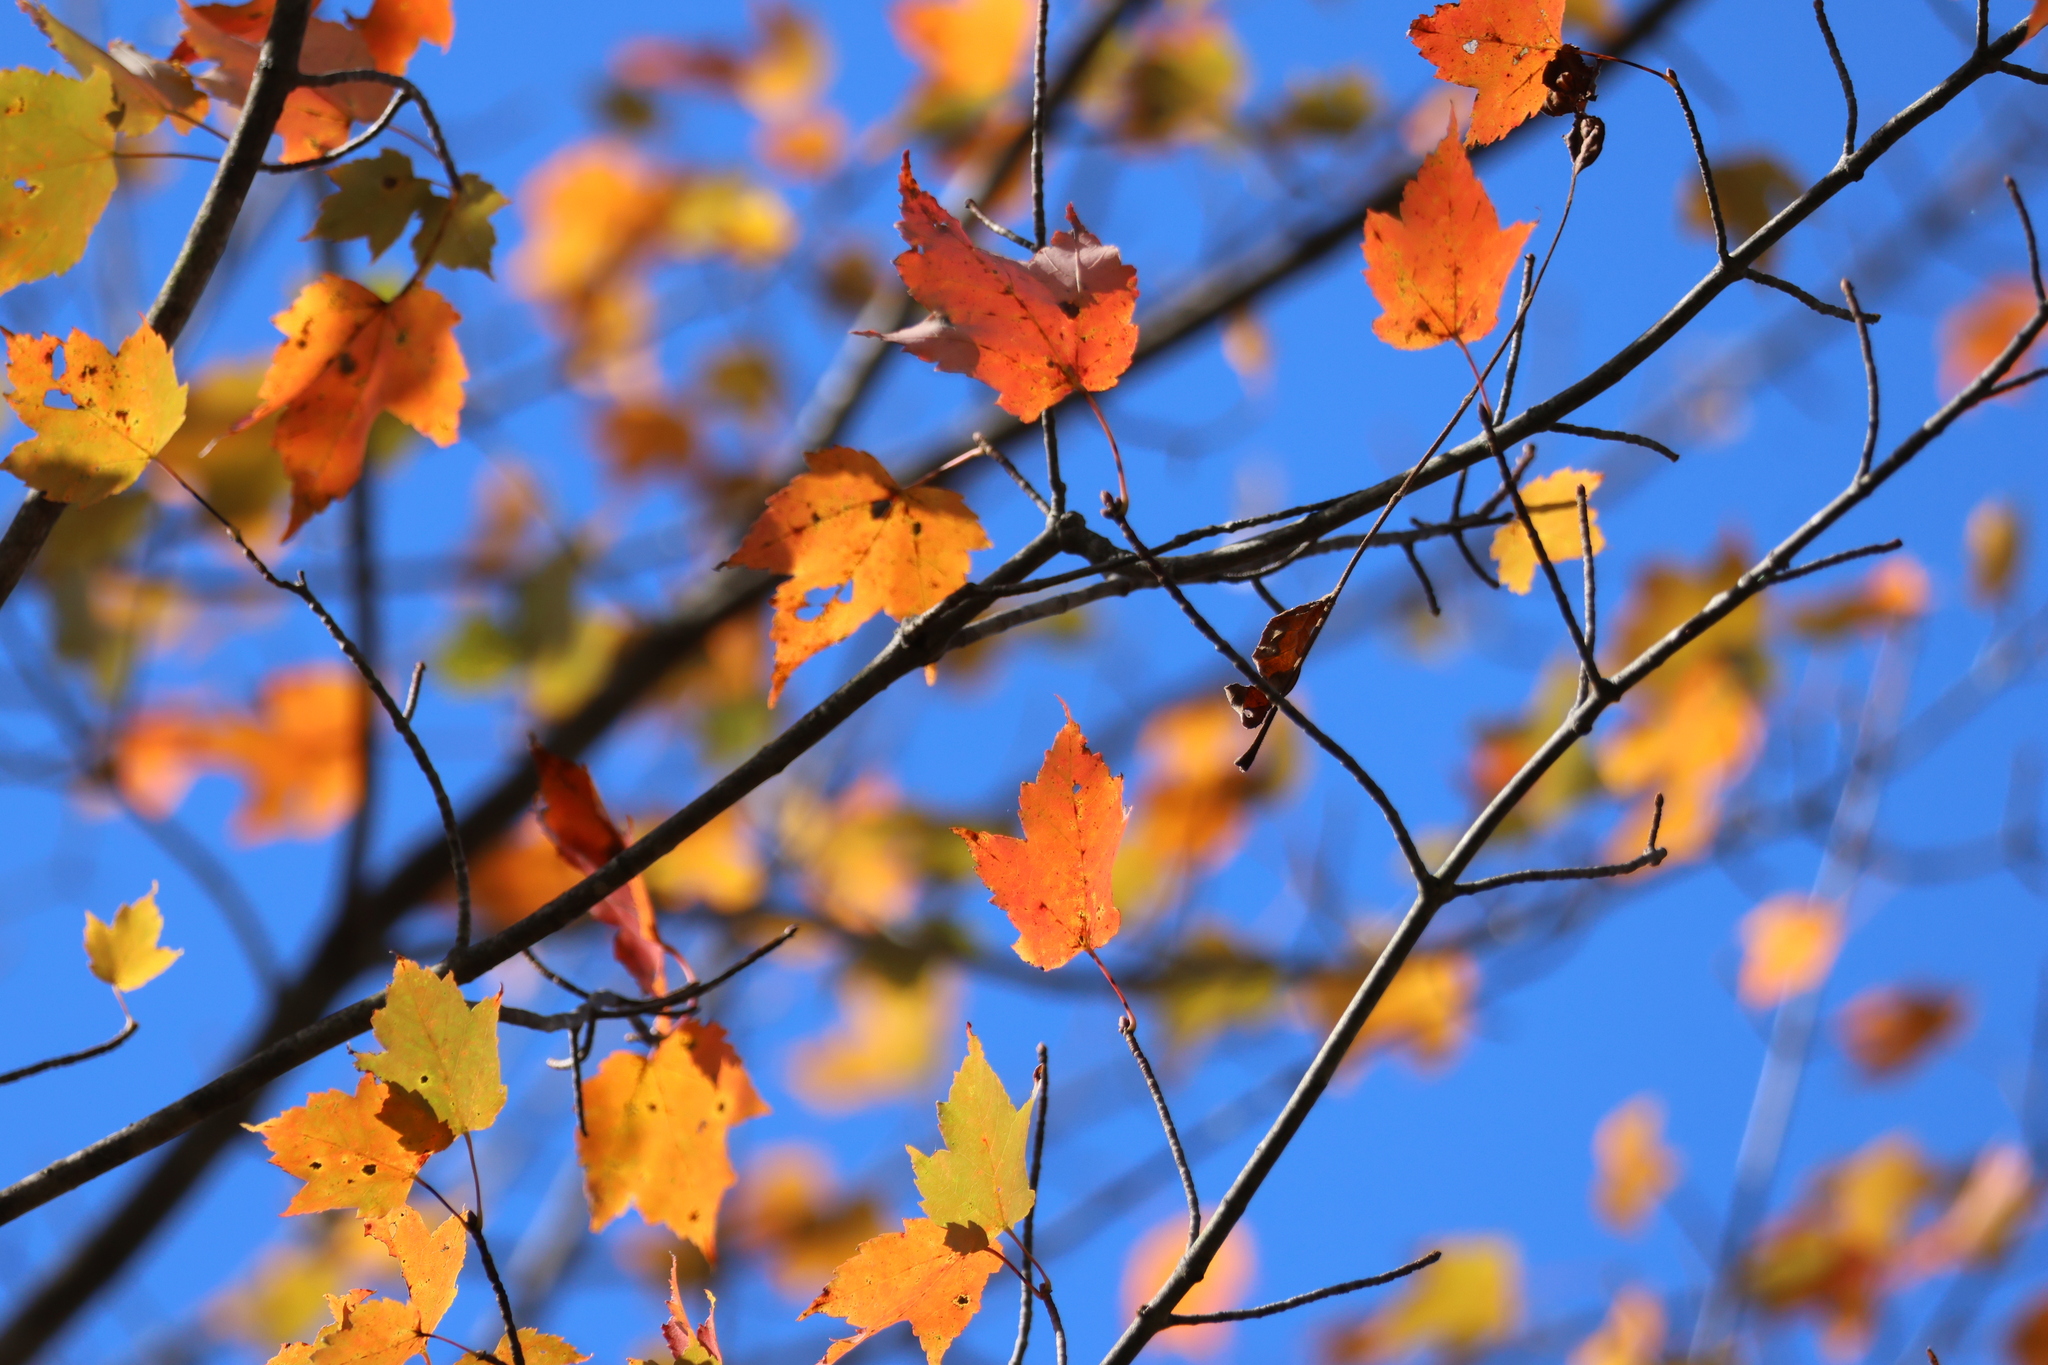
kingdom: Plantae
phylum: Tracheophyta
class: Magnoliopsida
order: Sapindales
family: Sapindaceae
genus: Acer
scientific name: Acer rubrum
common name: Red maple
